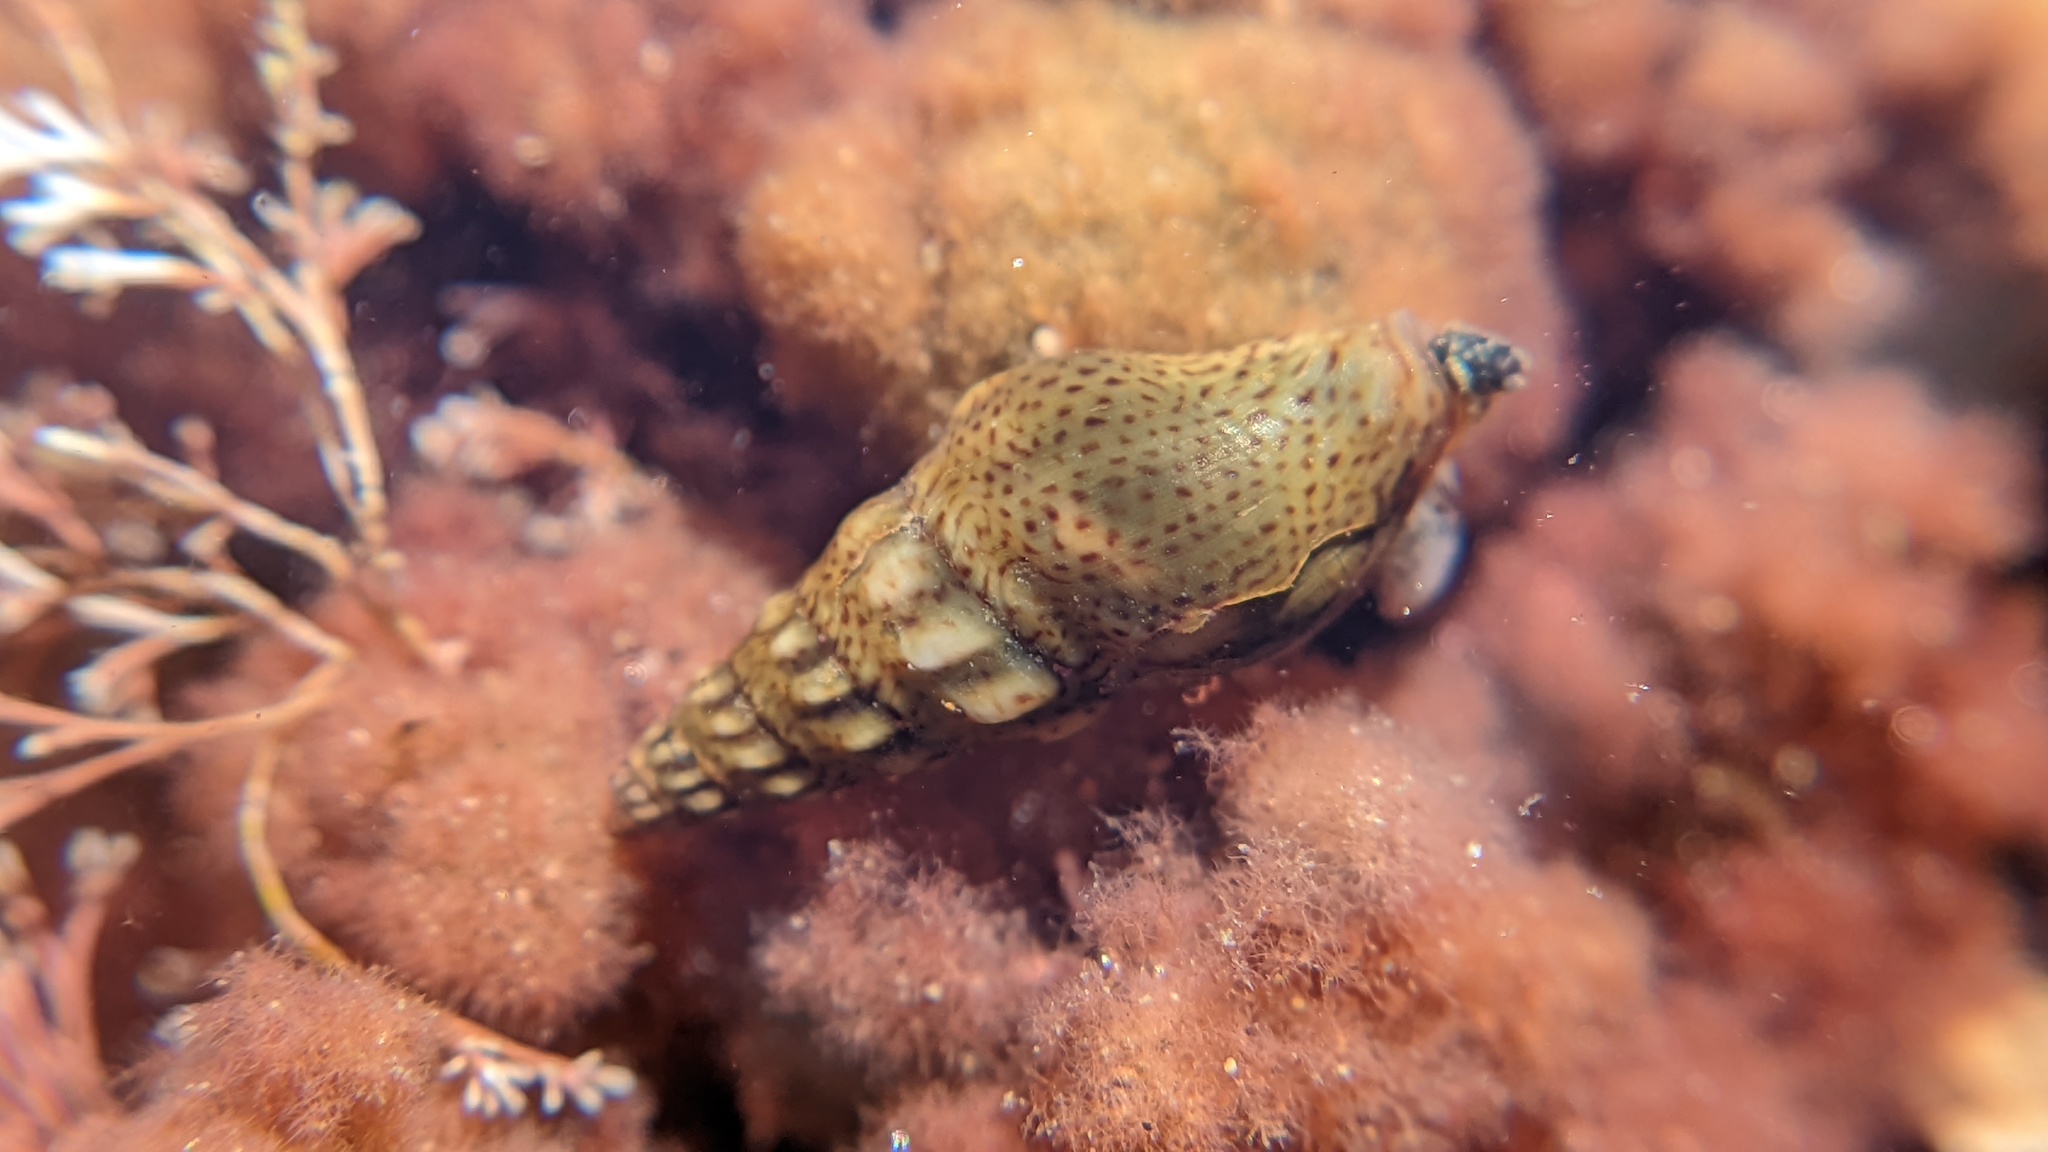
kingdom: Animalia
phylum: Mollusca
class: Gastropoda
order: Neogastropoda
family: Pseudomelatomidae
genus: Pseudomelatoma
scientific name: Pseudomelatoma penicillata
